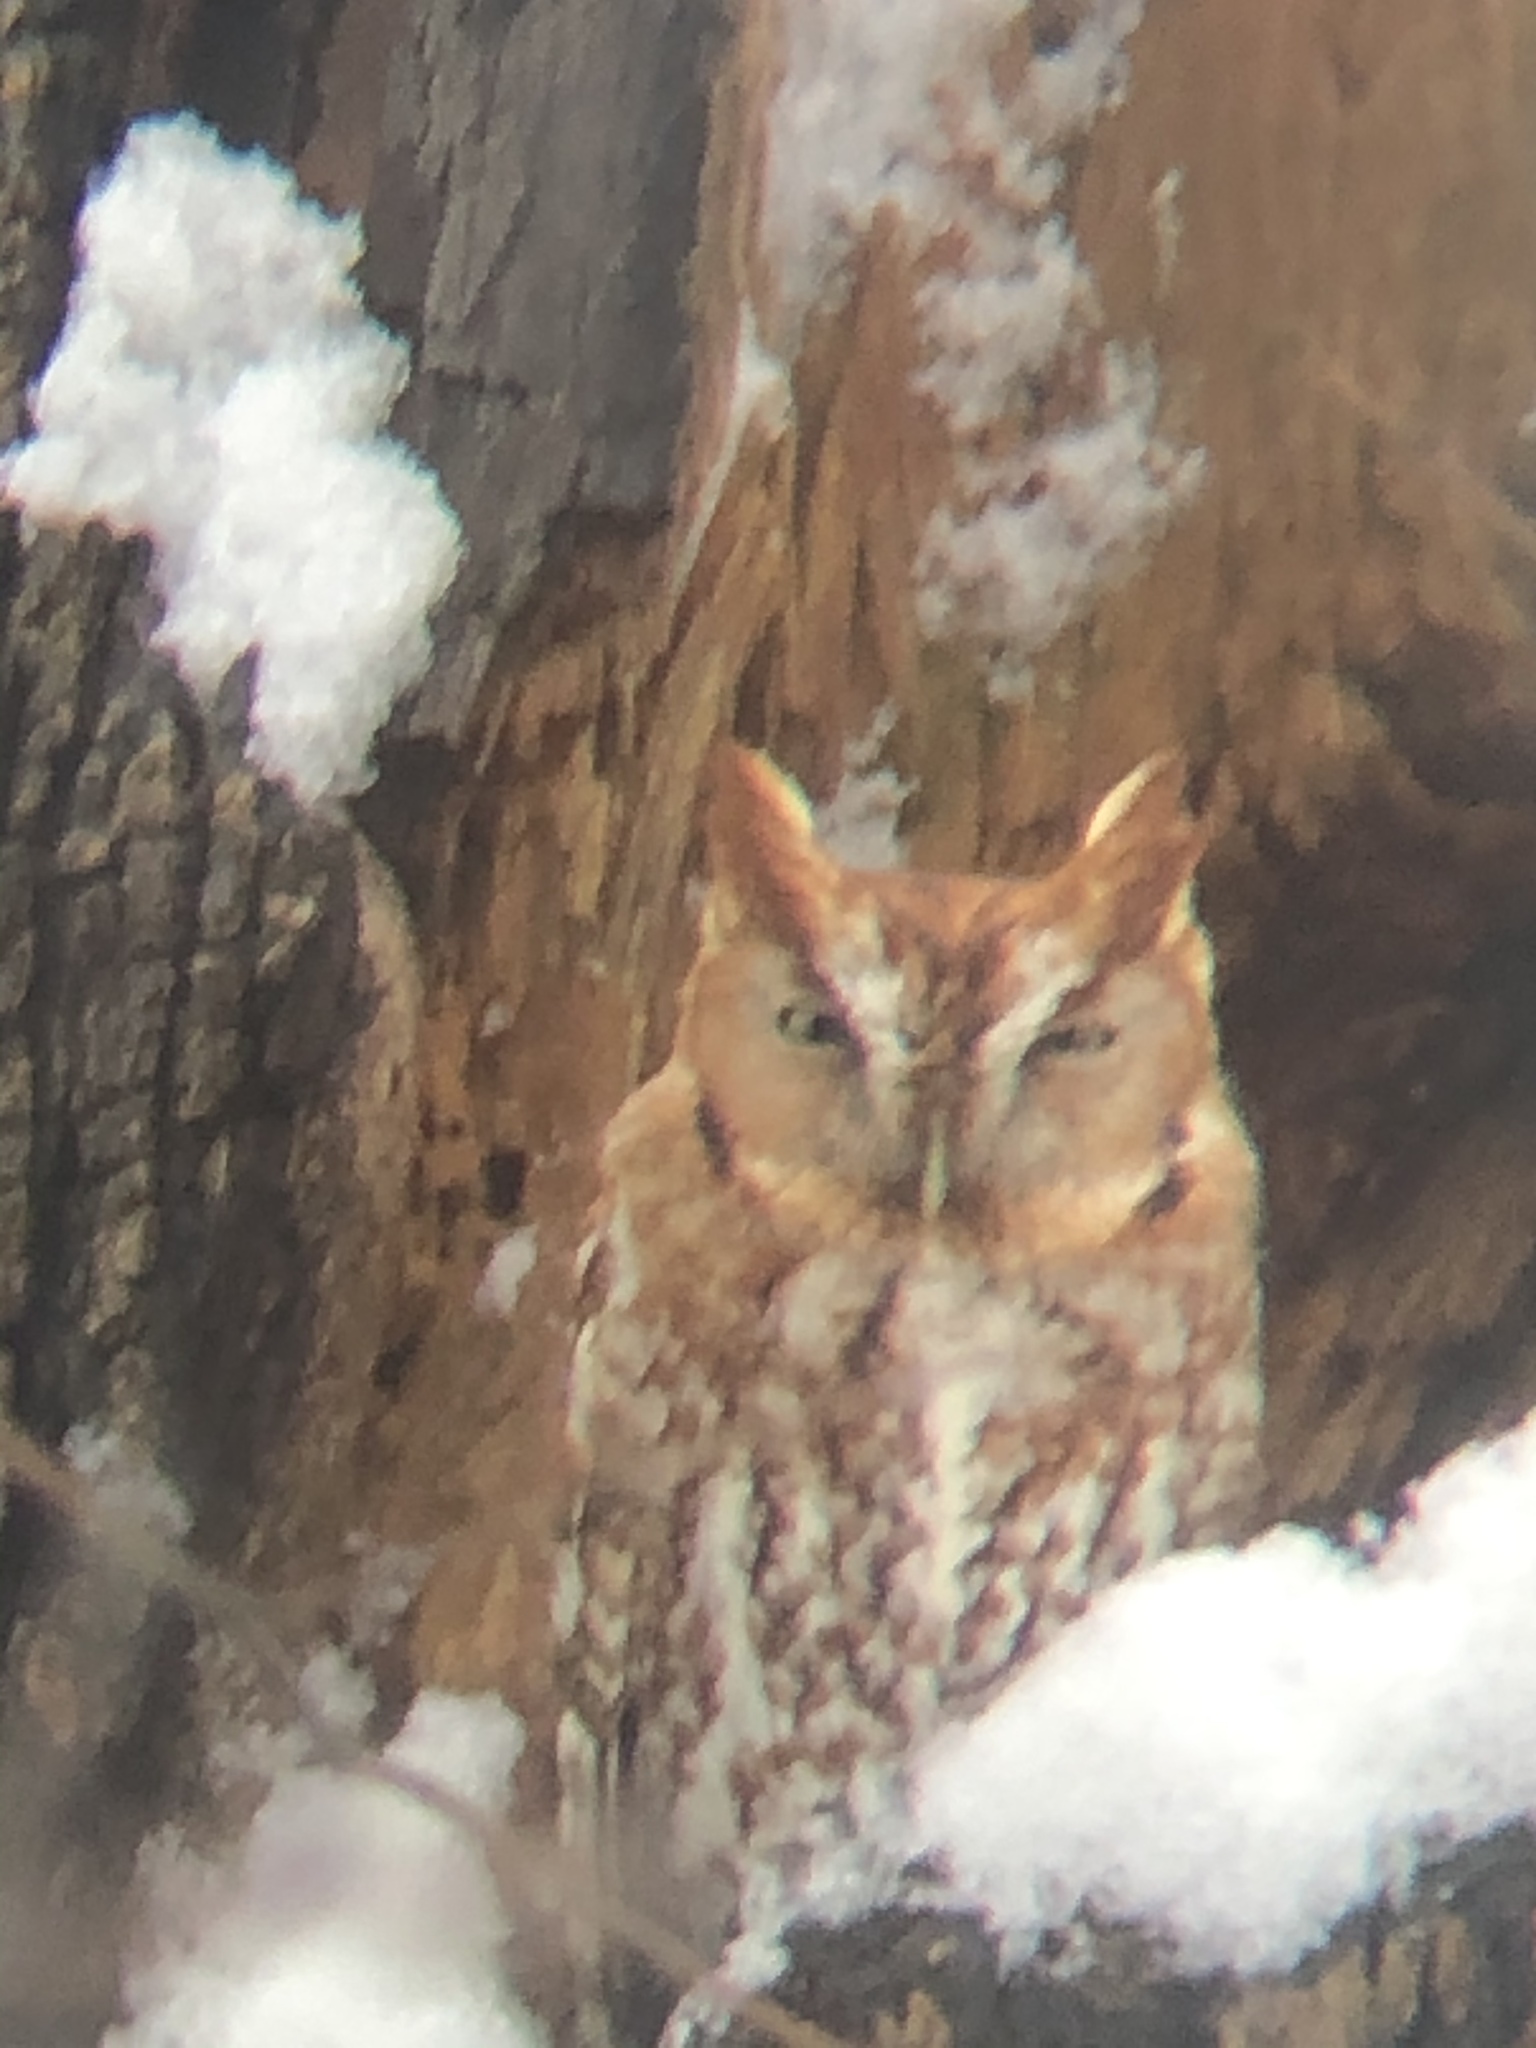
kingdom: Animalia
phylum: Chordata
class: Aves
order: Strigiformes
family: Strigidae
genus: Megascops
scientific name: Megascops asio
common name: Eastern screech-owl
